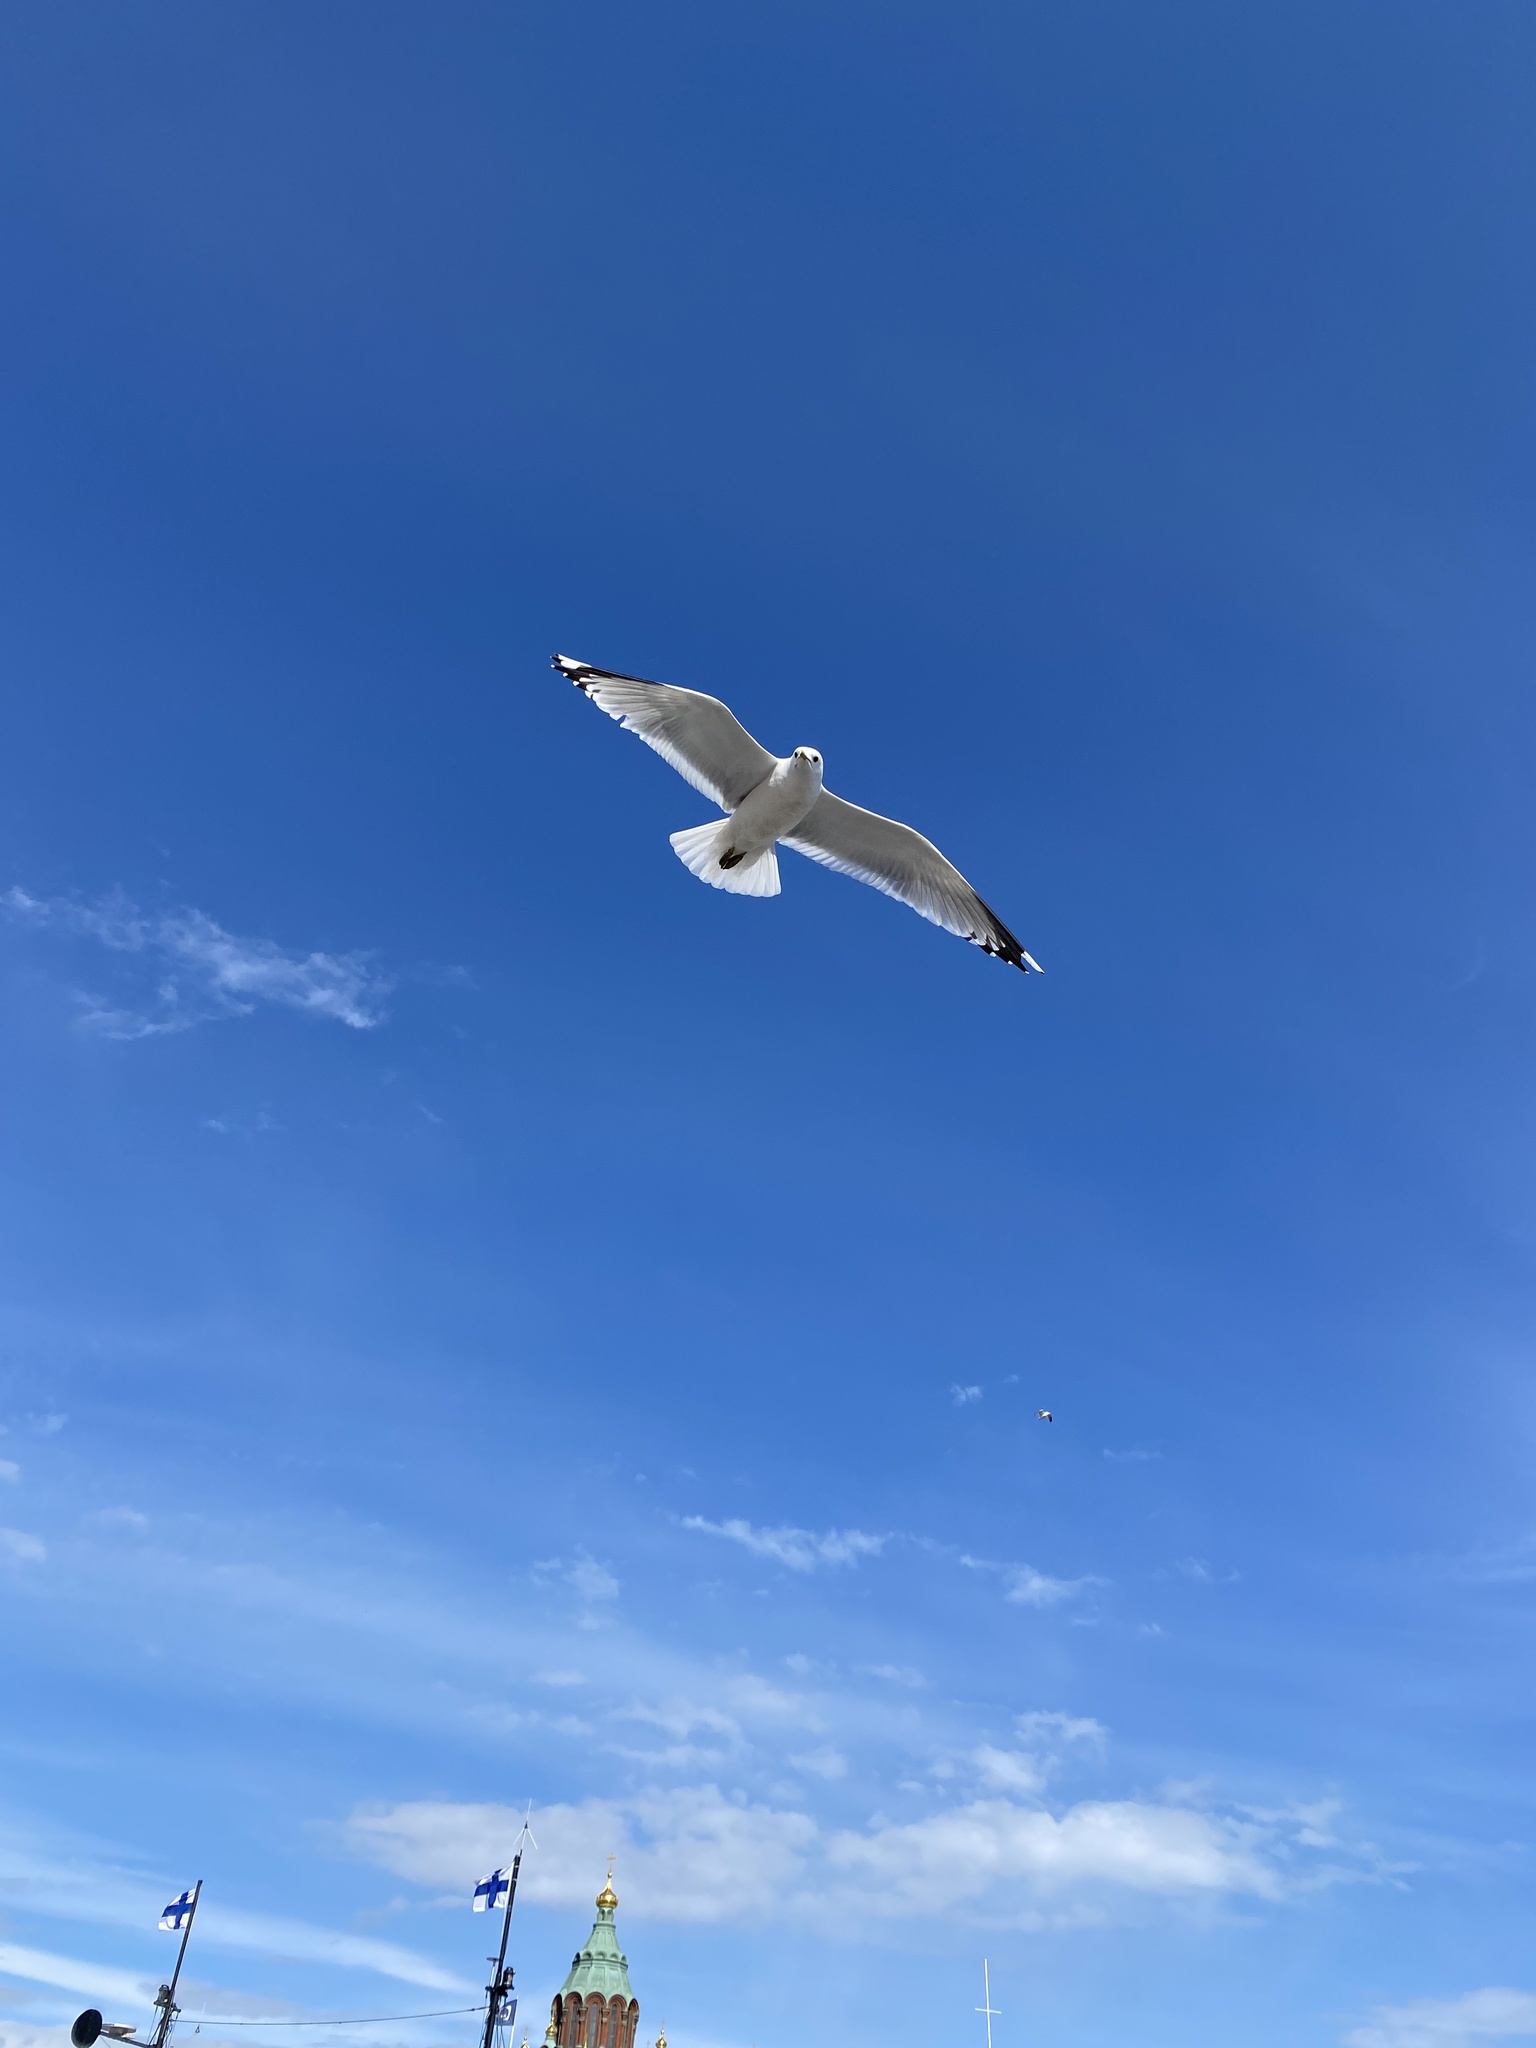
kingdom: Animalia
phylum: Chordata
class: Aves
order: Charadriiformes
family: Laridae
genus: Larus
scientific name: Larus canus
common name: Mew gull
